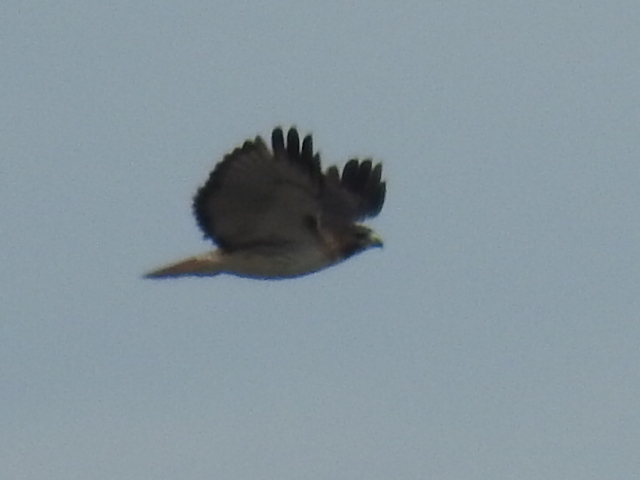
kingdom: Animalia
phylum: Chordata
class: Aves
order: Accipitriformes
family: Accipitridae
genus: Buteo
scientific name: Buteo jamaicensis
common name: Red-tailed hawk
